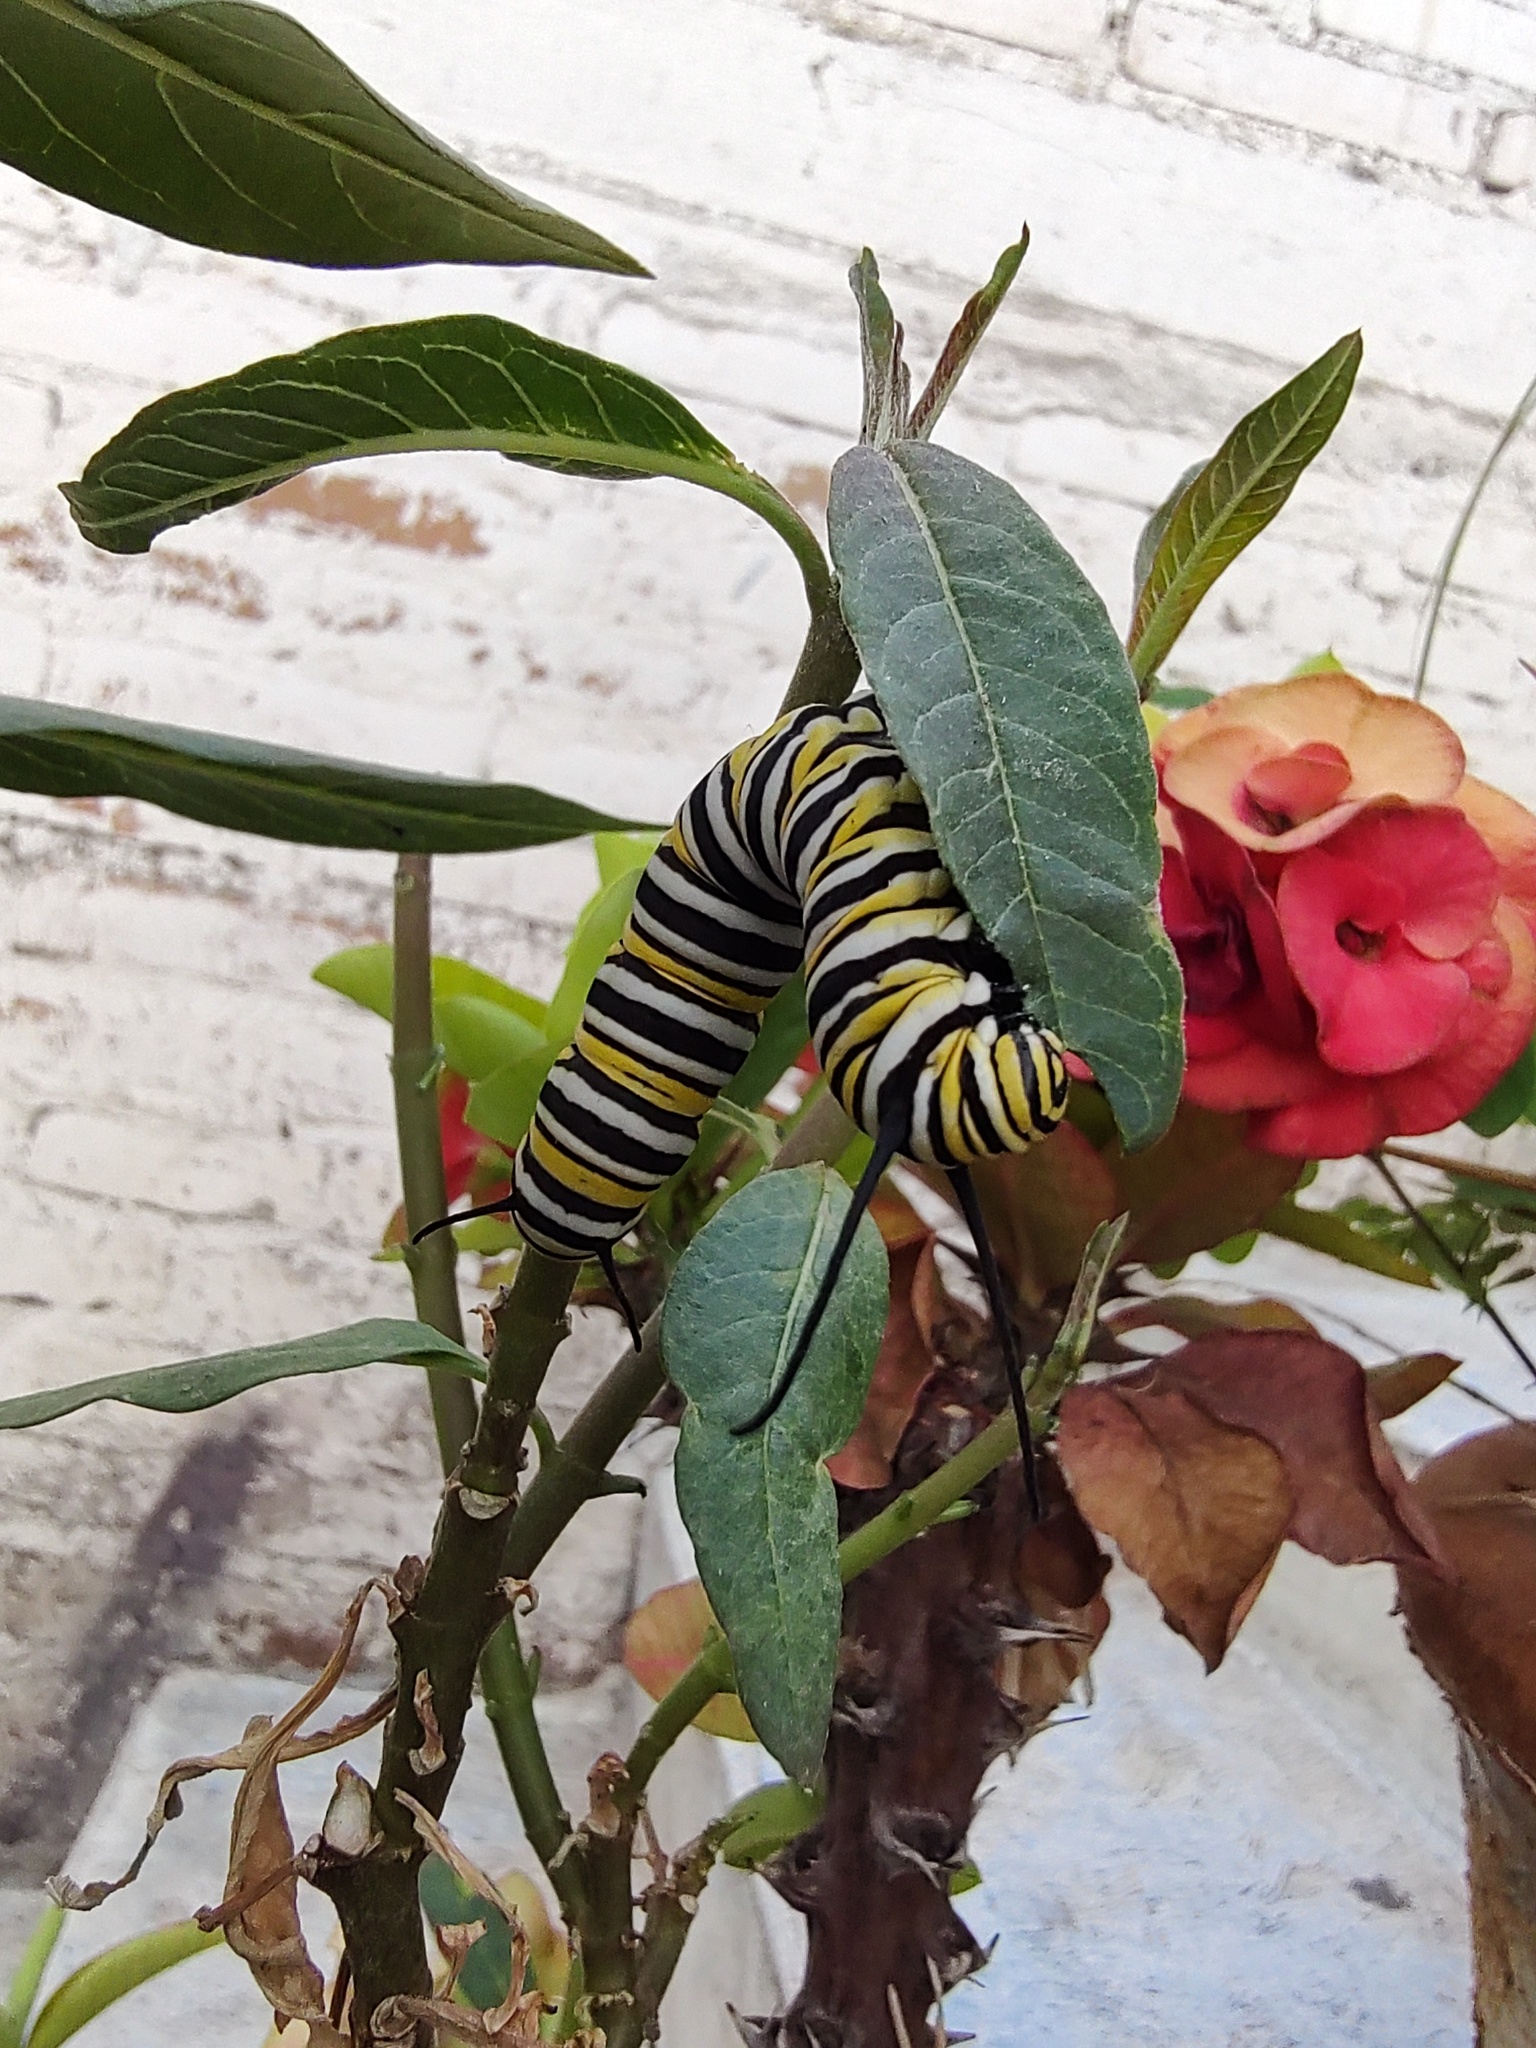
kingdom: Animalia
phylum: Arthropoda
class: Insecta
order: Lepidoptera
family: Nymphalidae
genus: Danaus
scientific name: Danaus plexippus
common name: Monarch
